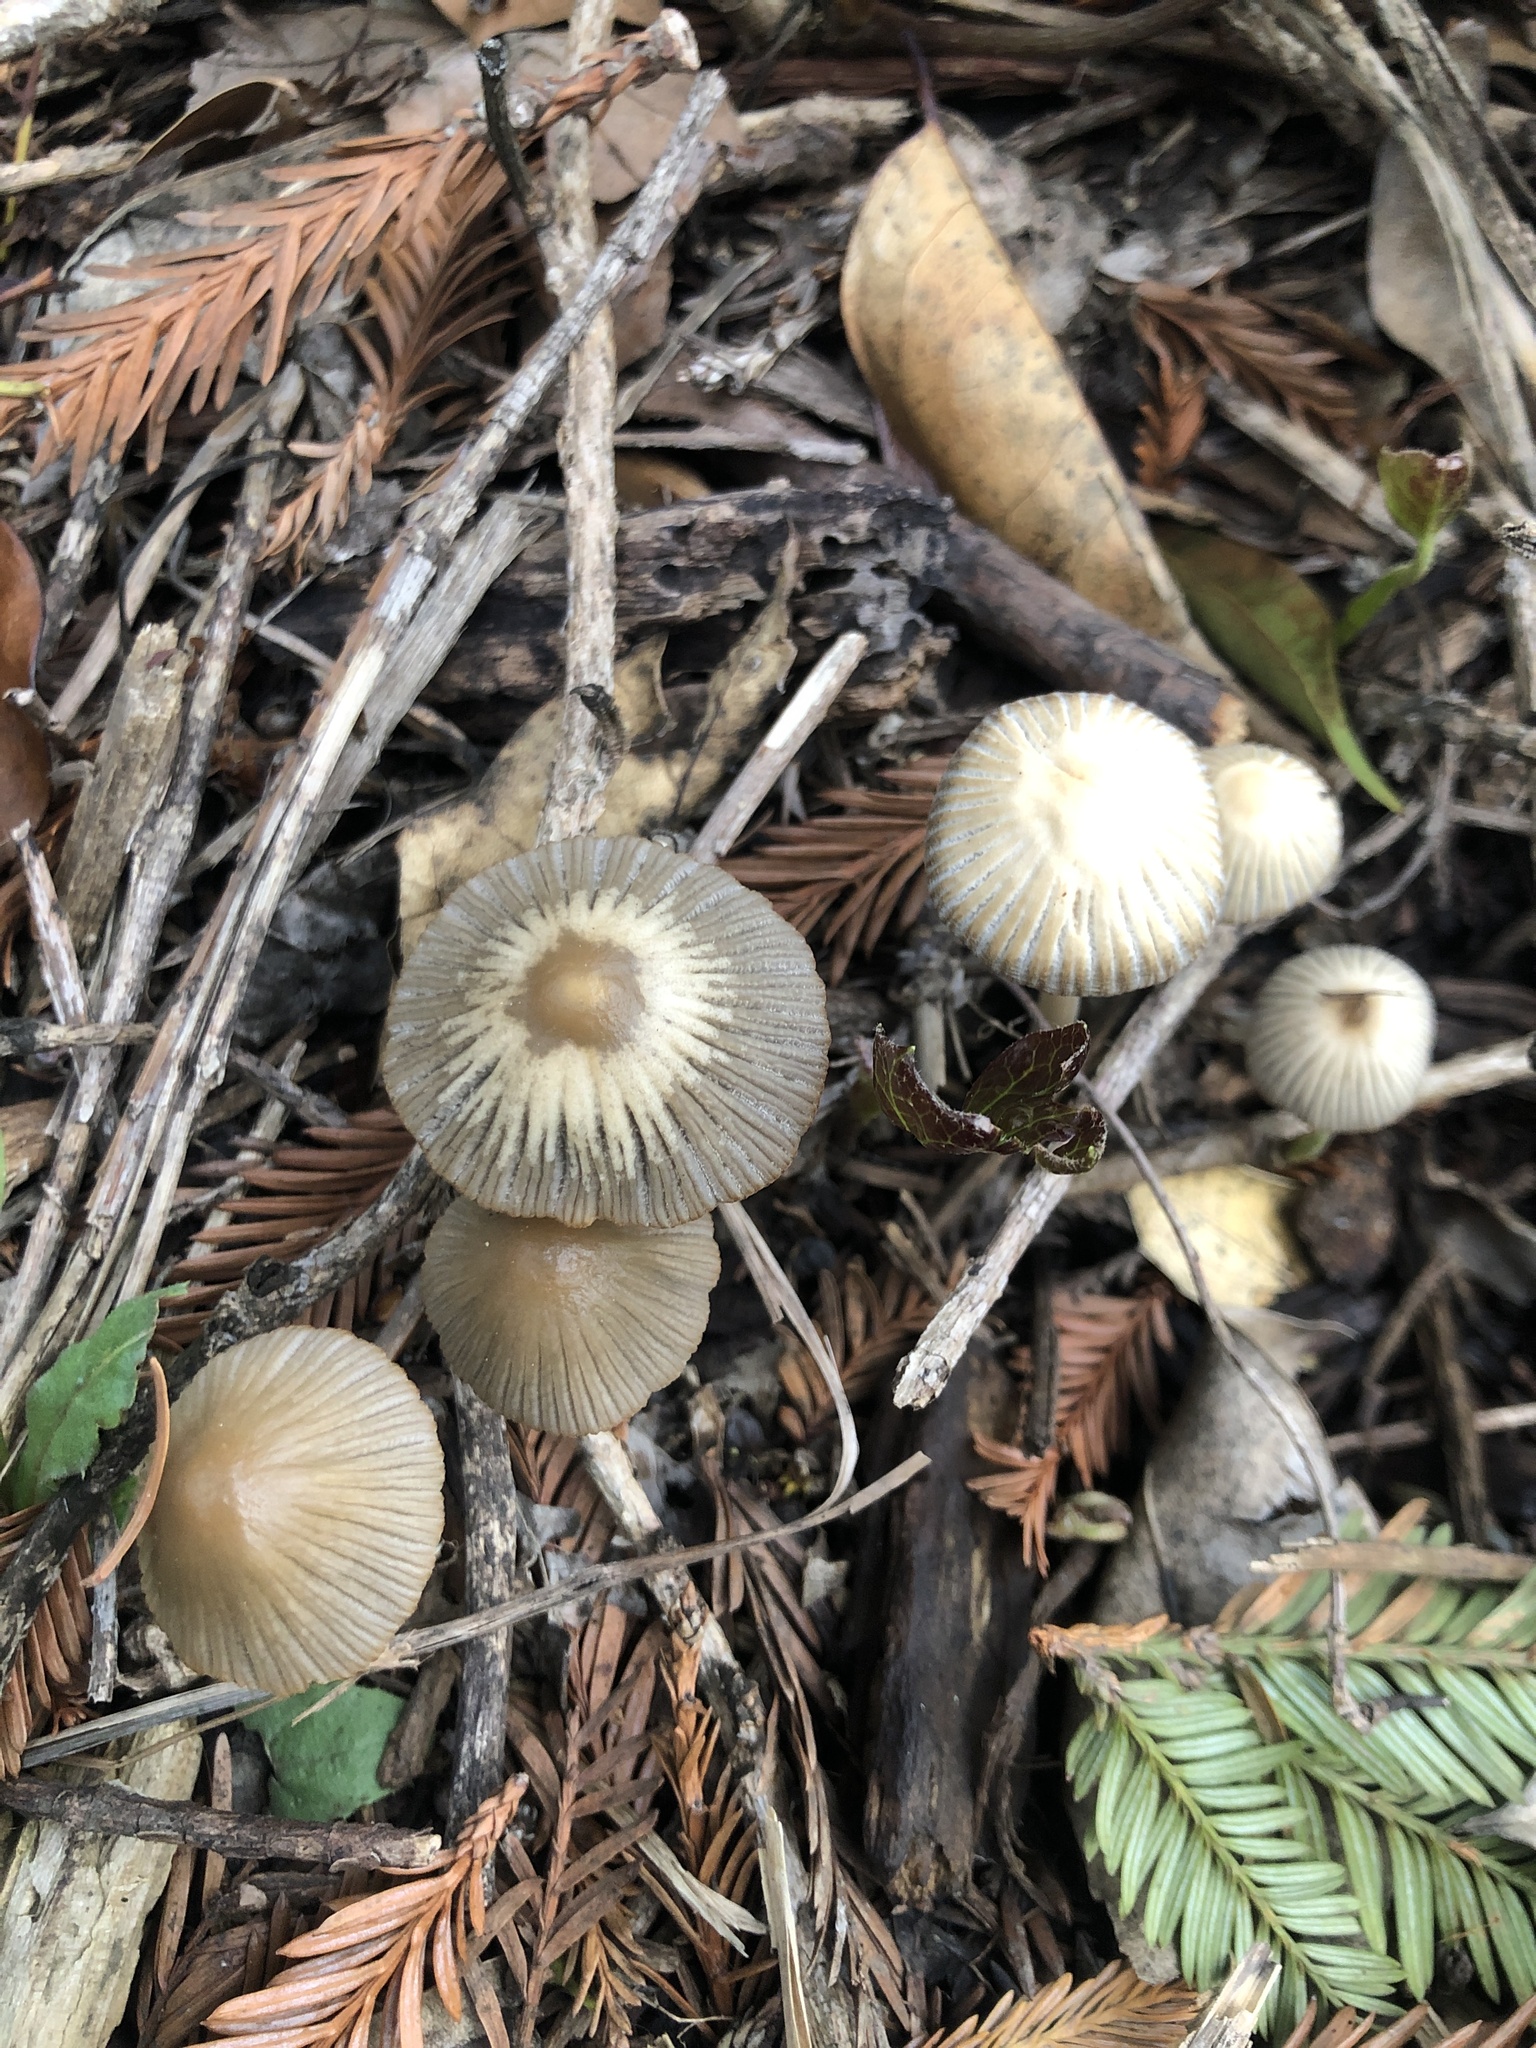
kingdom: Fungi
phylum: Basidiomycota
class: Agaricomycetes
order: Agaricales
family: Psathyrellaceae
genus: Tulosesus
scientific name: Tulosesus impatiens
